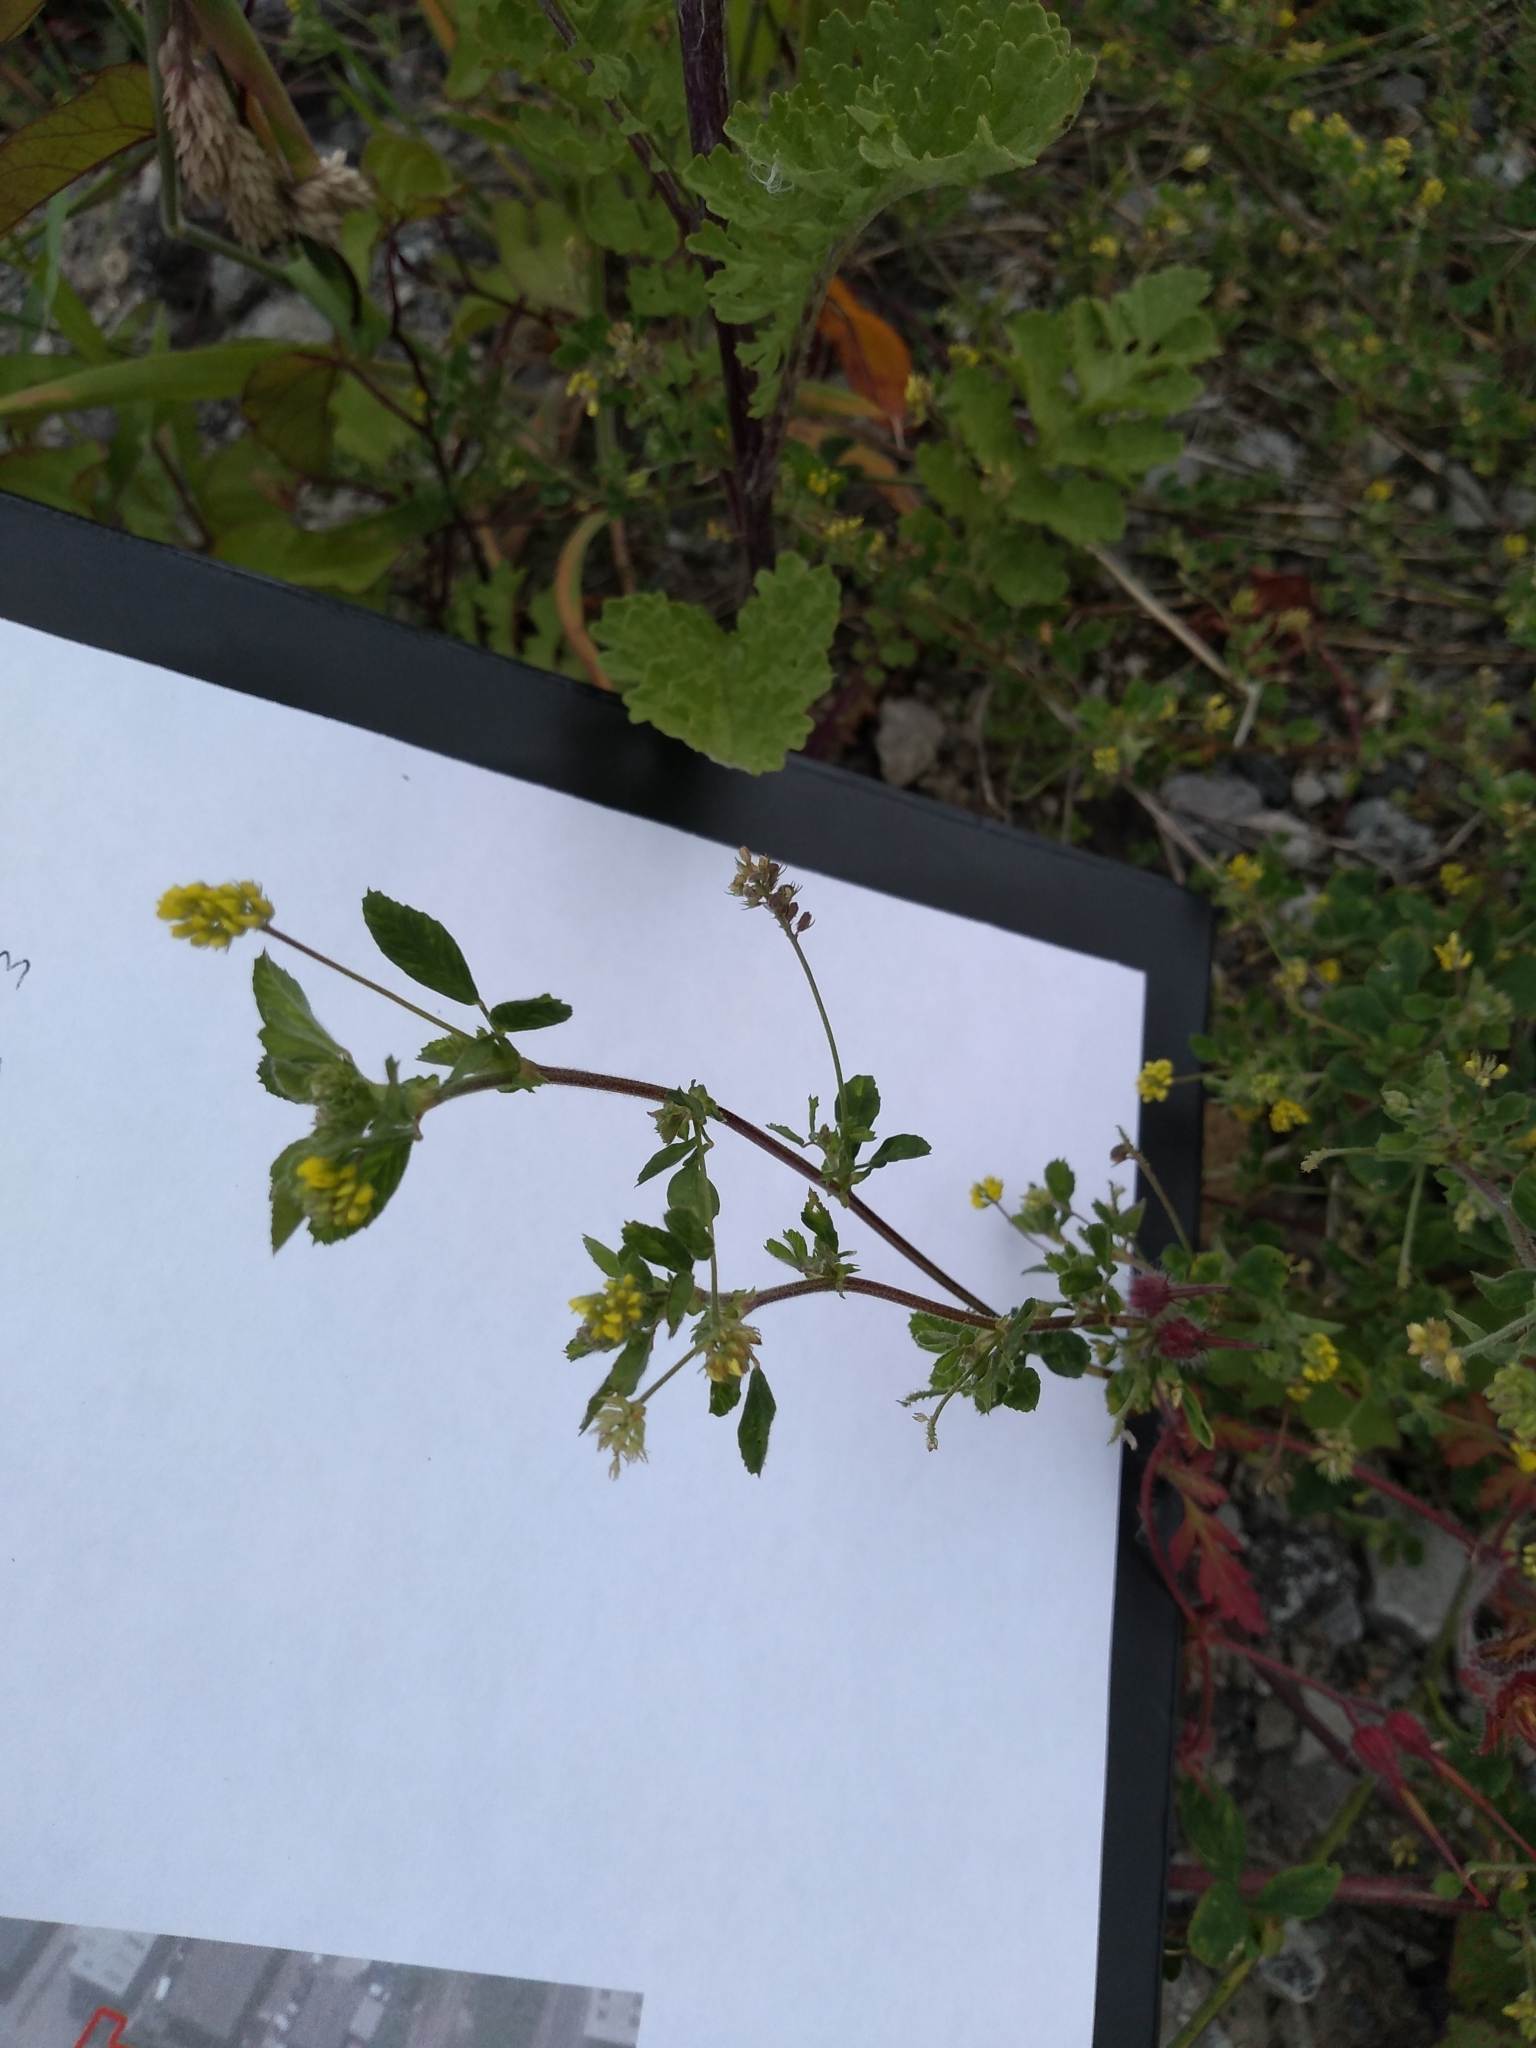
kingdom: Plantae
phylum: Tracheophyta
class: Magnoliopsida
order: Fabales
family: Fabaceae
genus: Medicago
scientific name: Medicago lupulina
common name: Black medick
